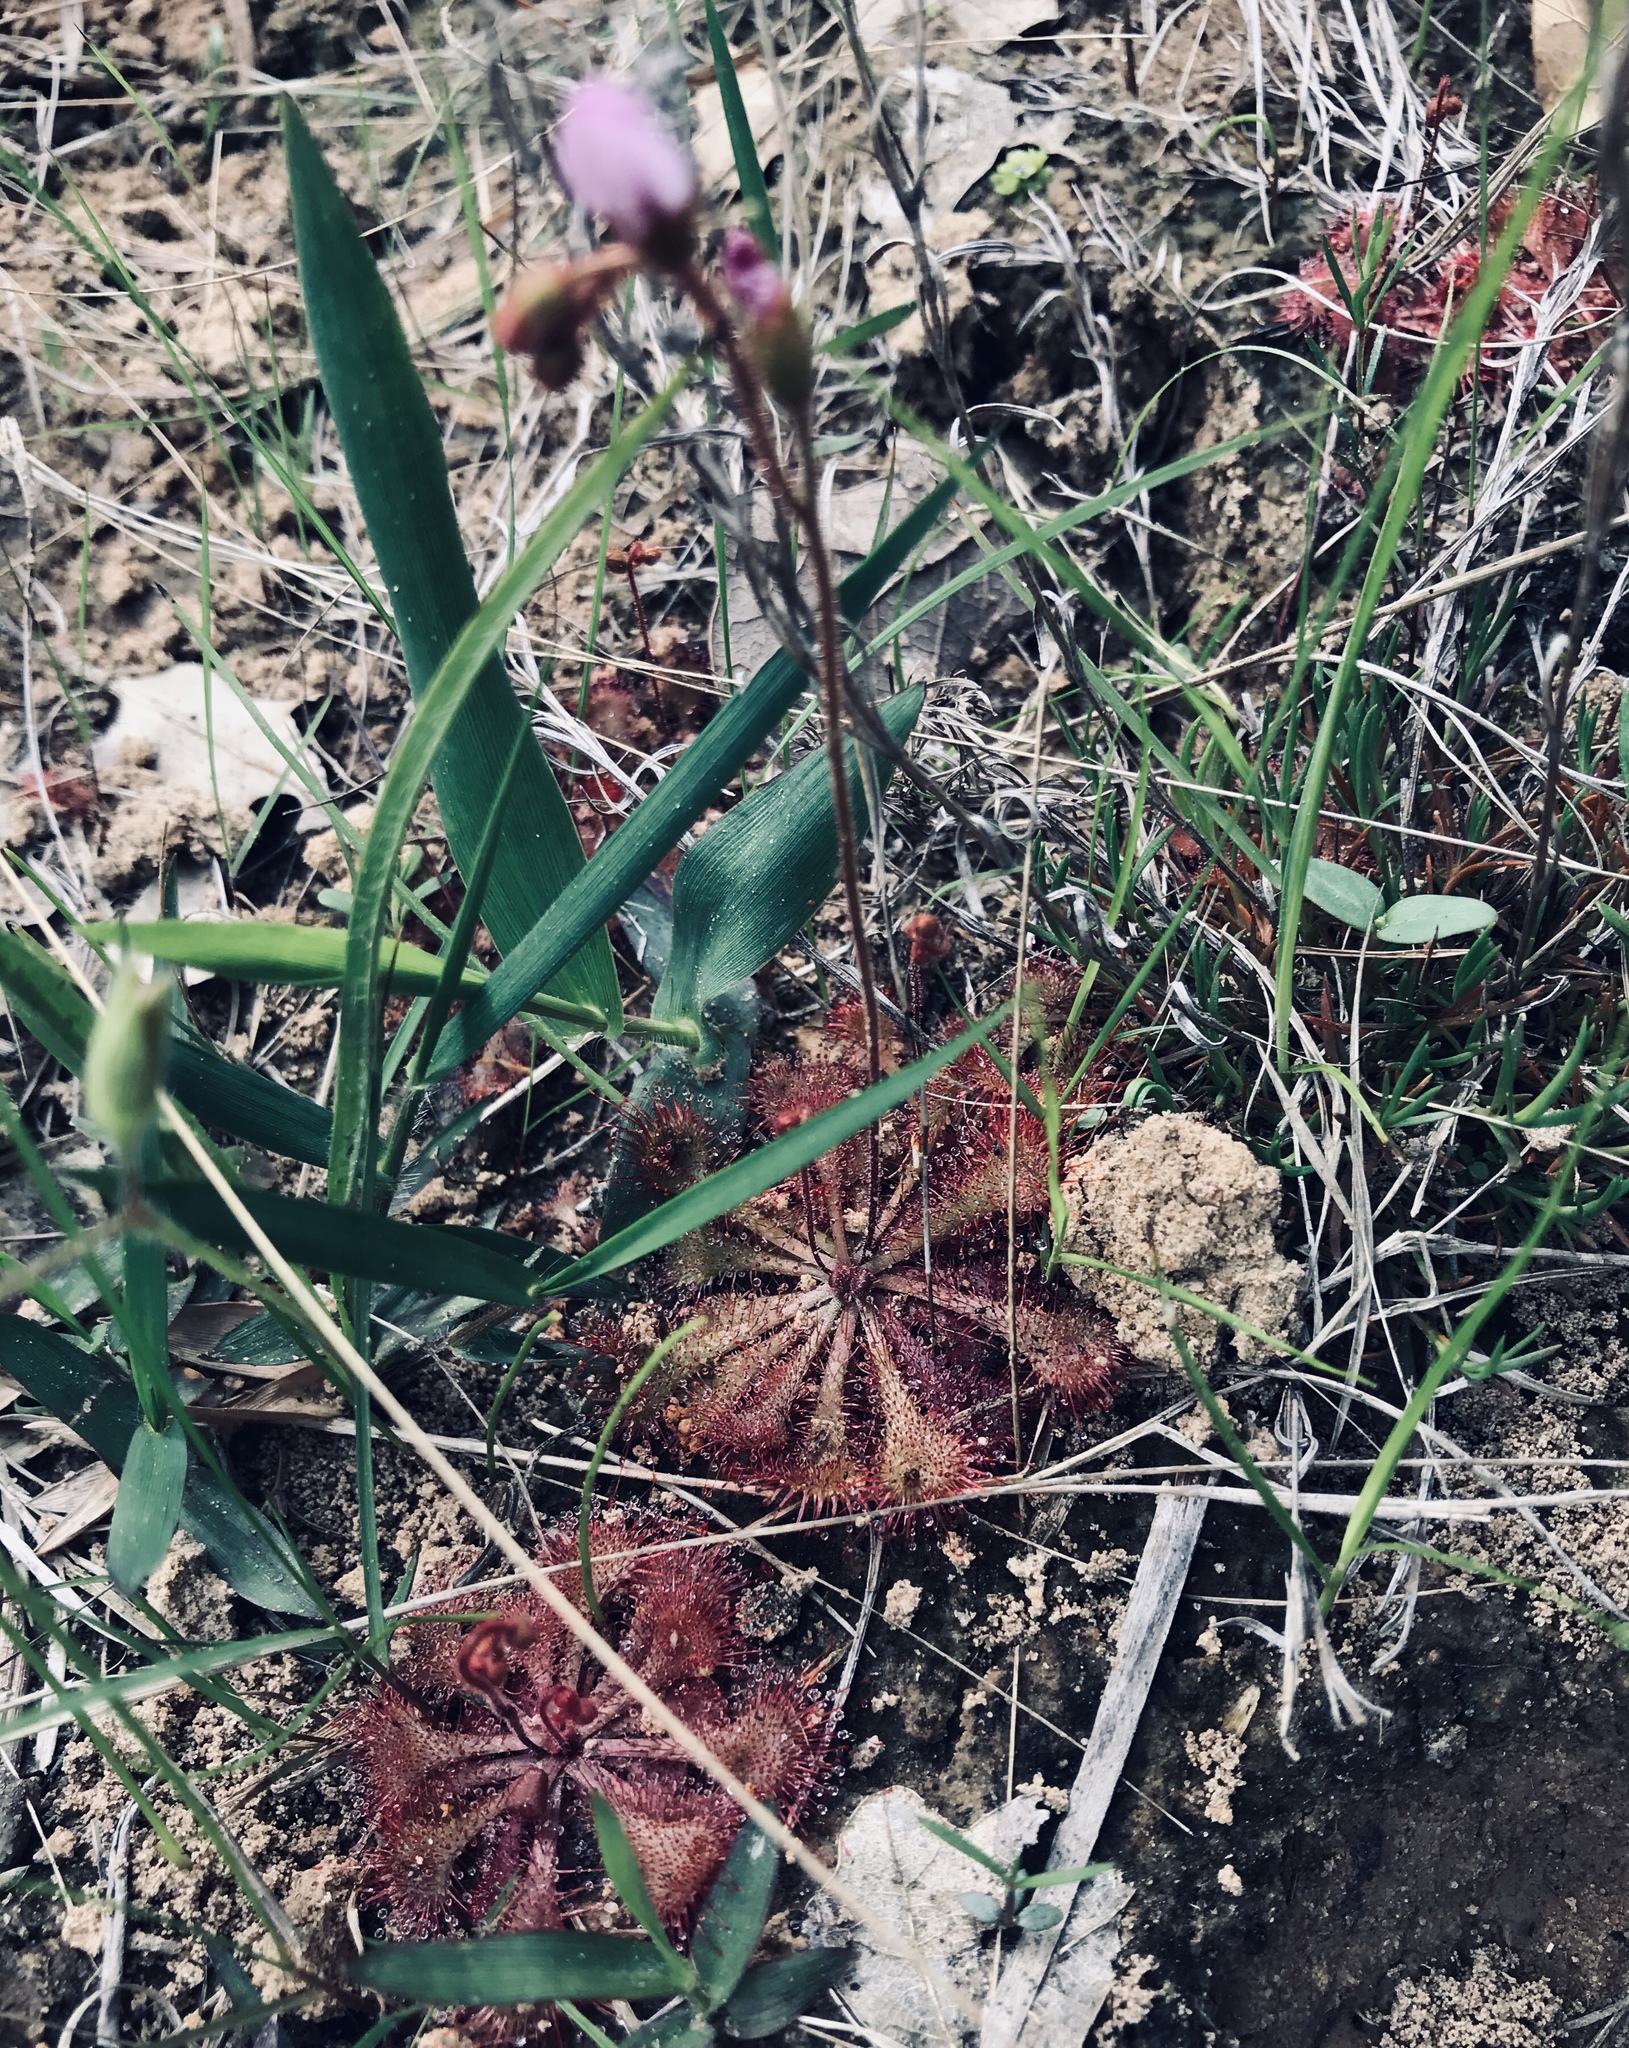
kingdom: Plantae
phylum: Tracheophyta
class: Magnoliopsida
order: Caryophyllales
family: Droseraceae
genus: Drosera
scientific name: Drosera brevifolia
